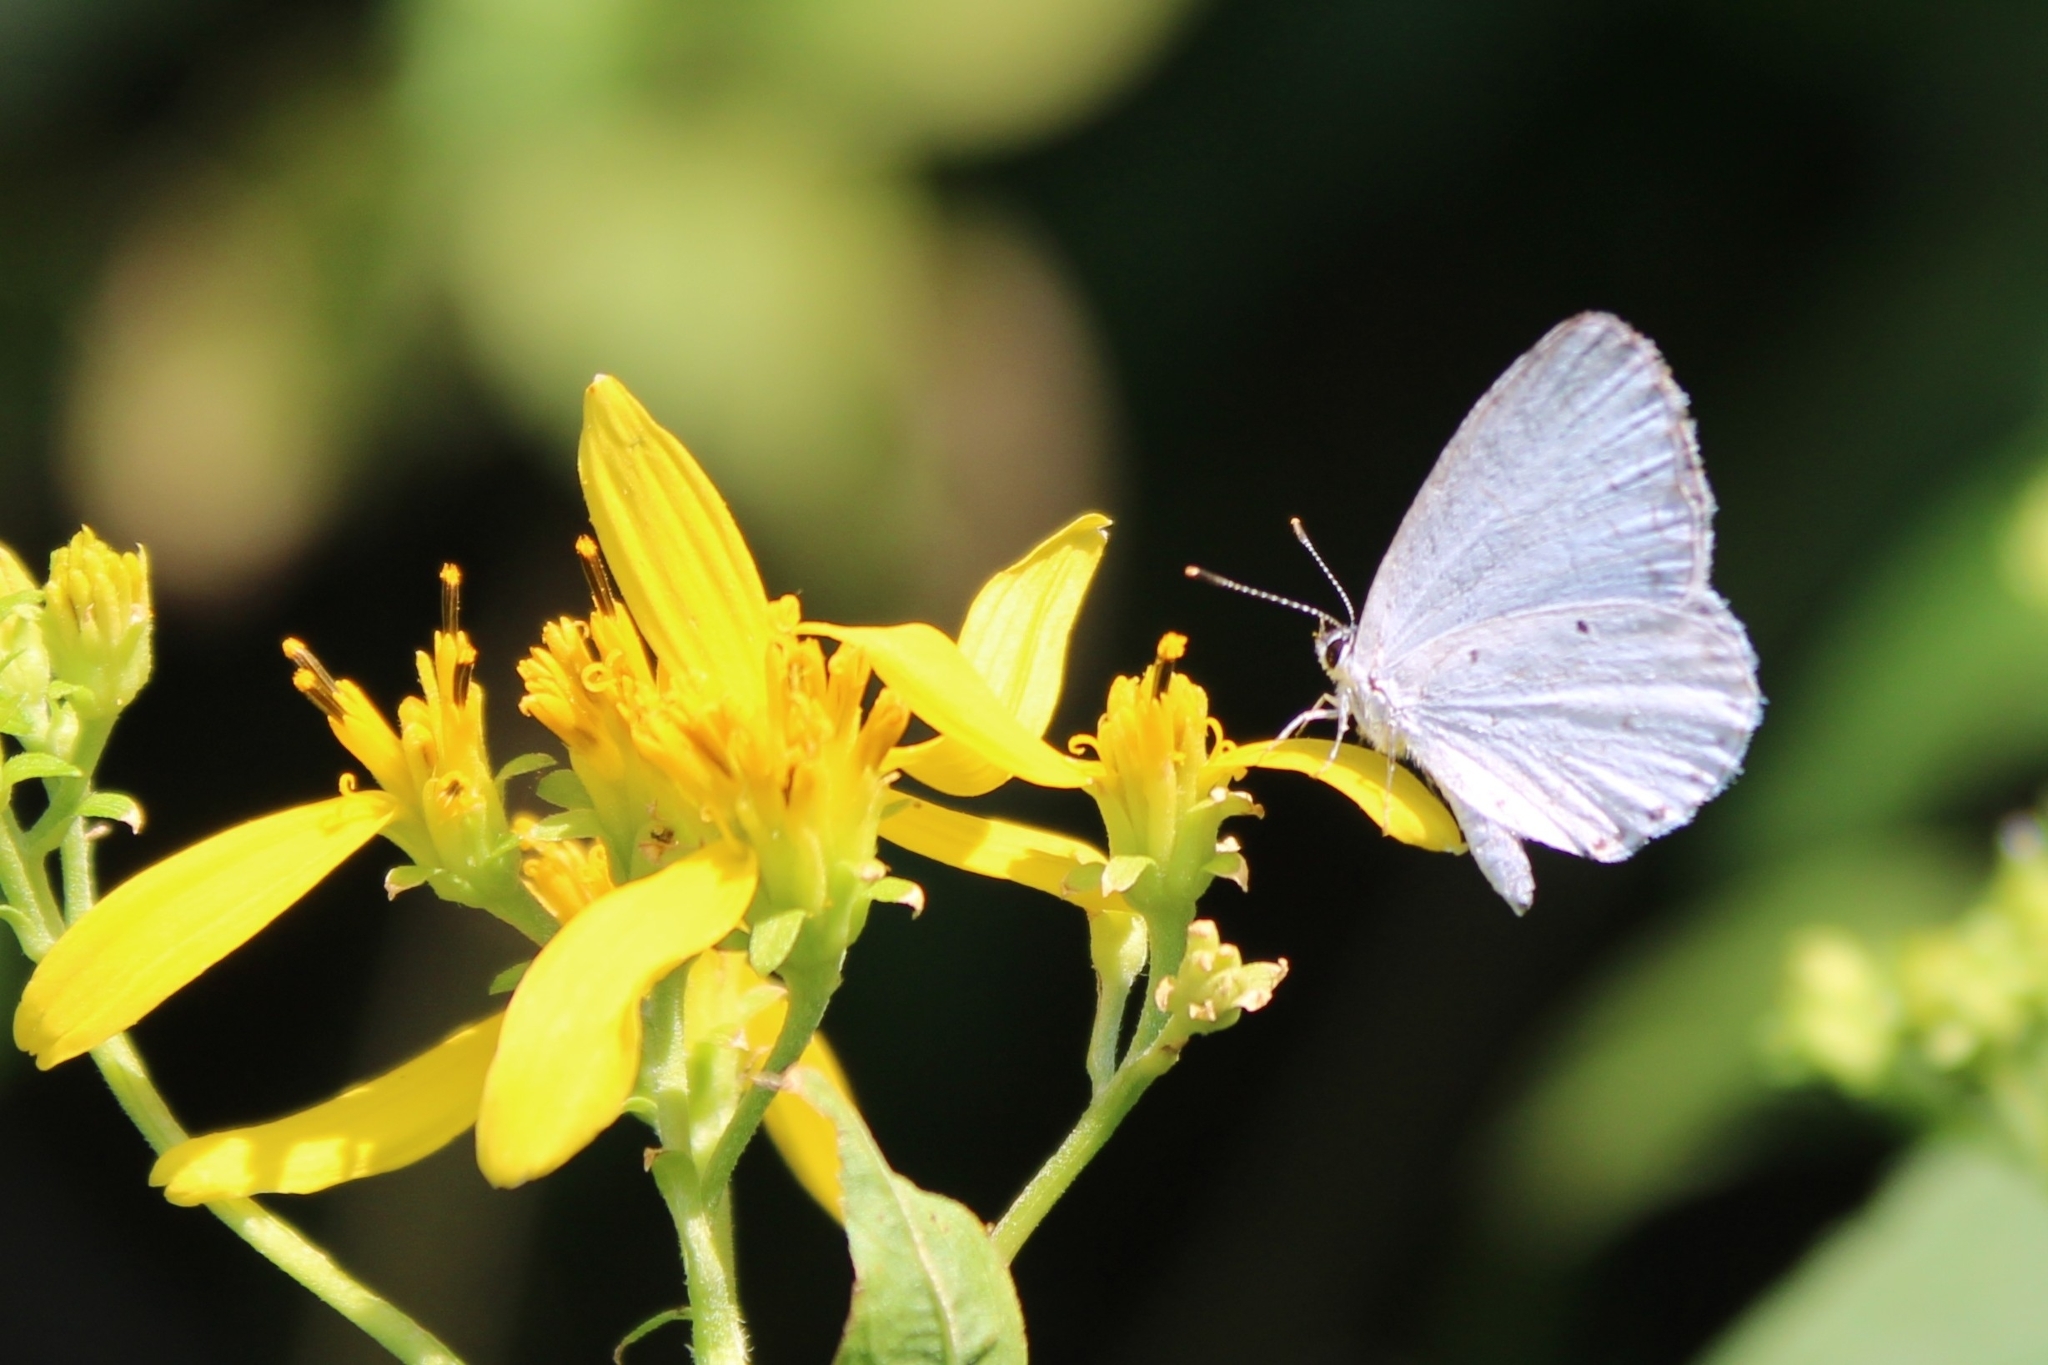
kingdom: Animalia
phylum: Arthropoda
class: Insecta
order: Lepidoptera
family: Lycaenidae
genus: Cyaniris
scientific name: Cyaniris neglecta
